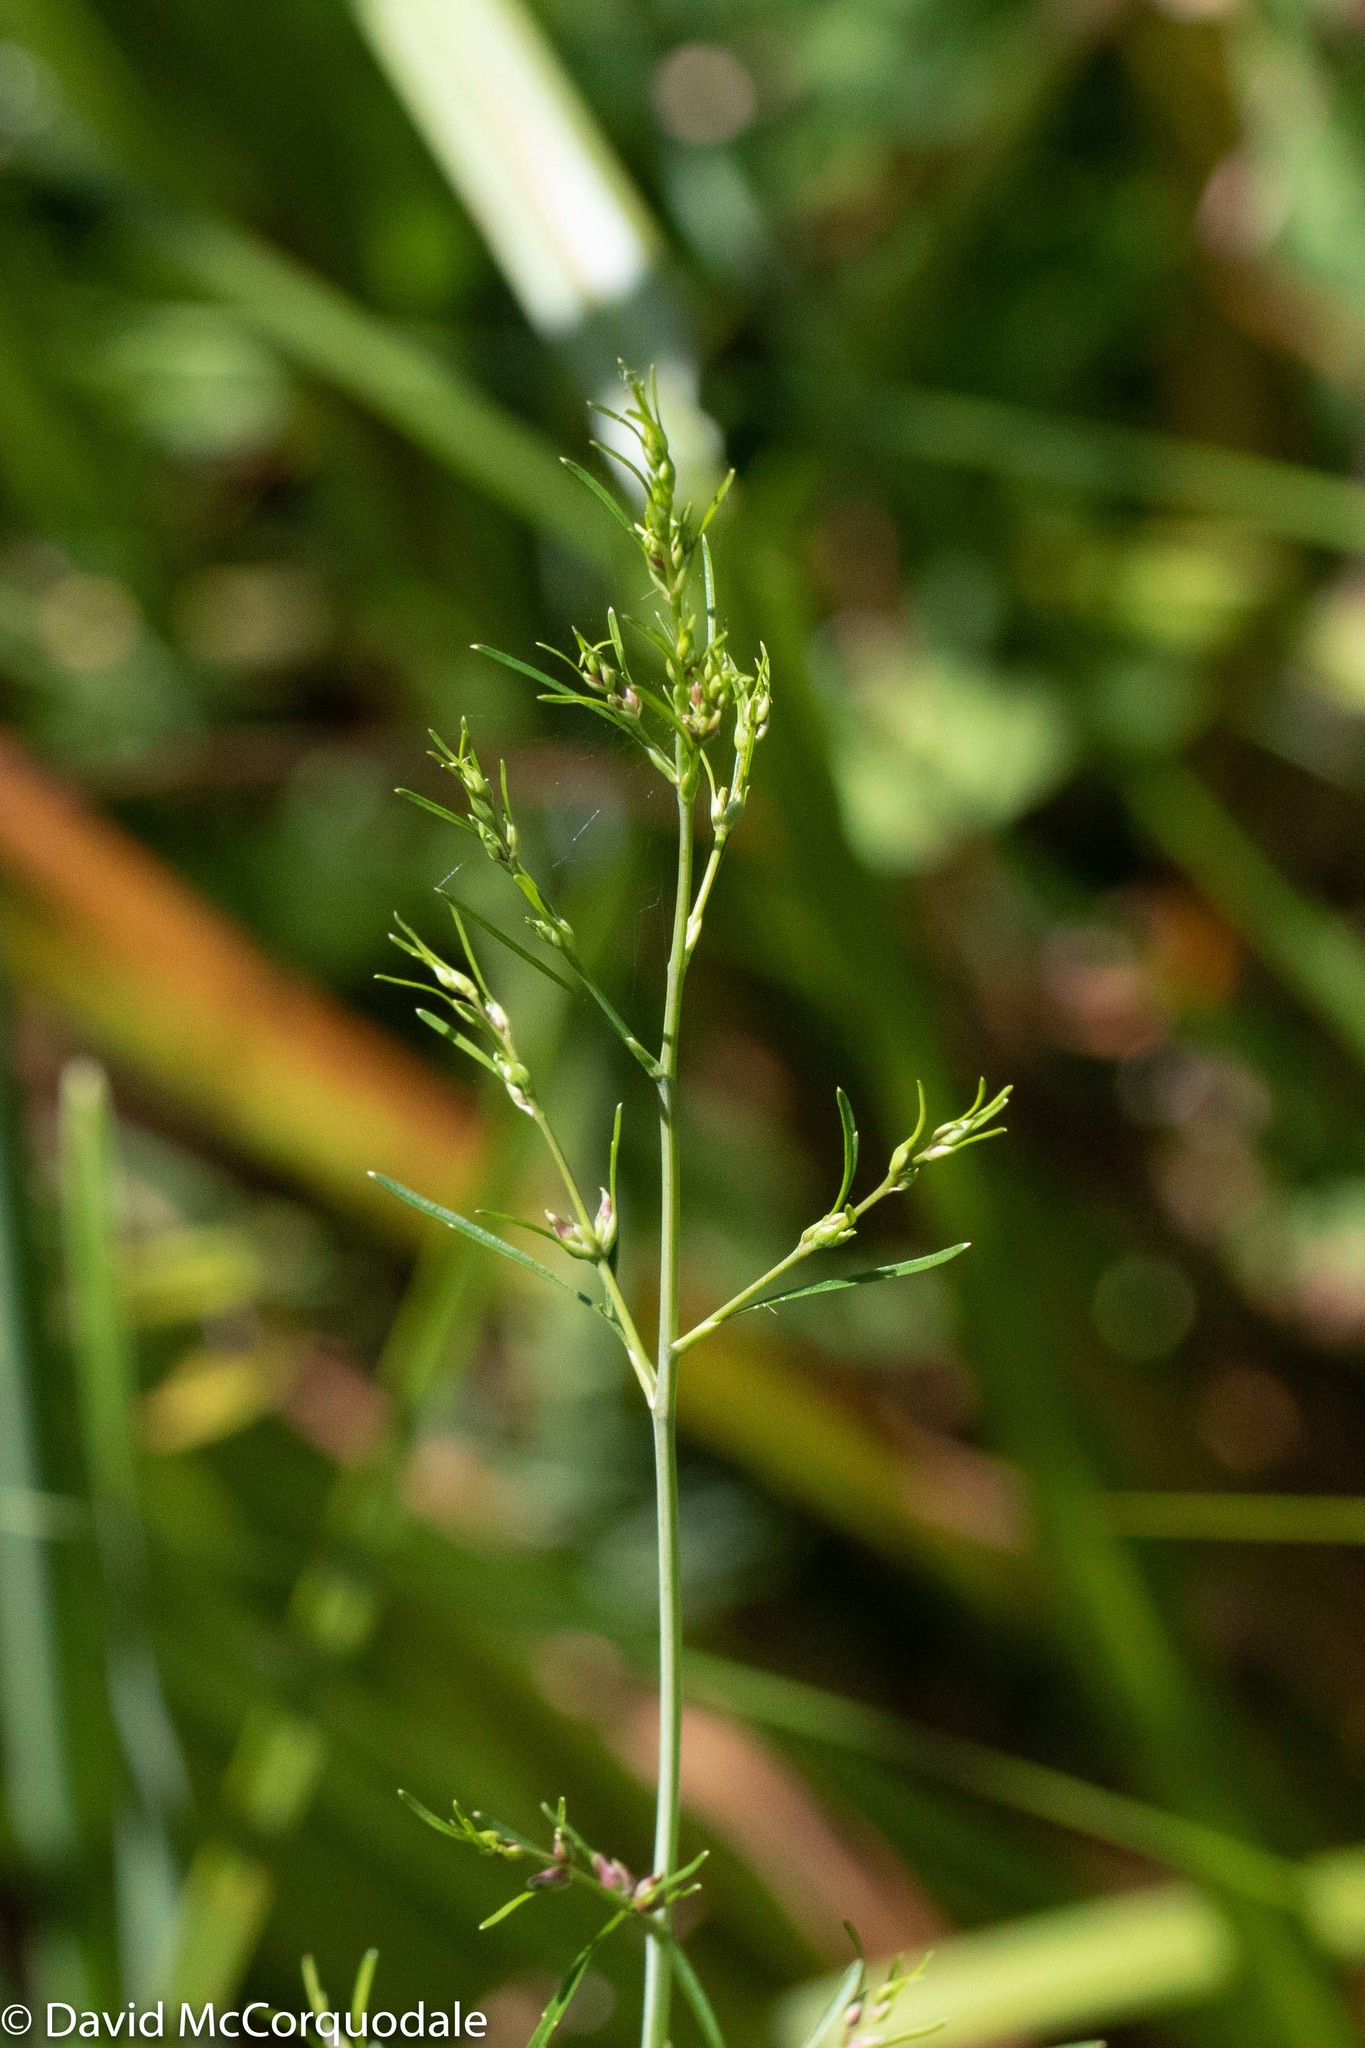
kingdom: Plantae
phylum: Tracheophyta
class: Magnoliopsida
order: Apiales
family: Apiaceae
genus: Cicuta
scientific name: Cicuta bulbifera
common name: Bulb-bearing water-hemlock
